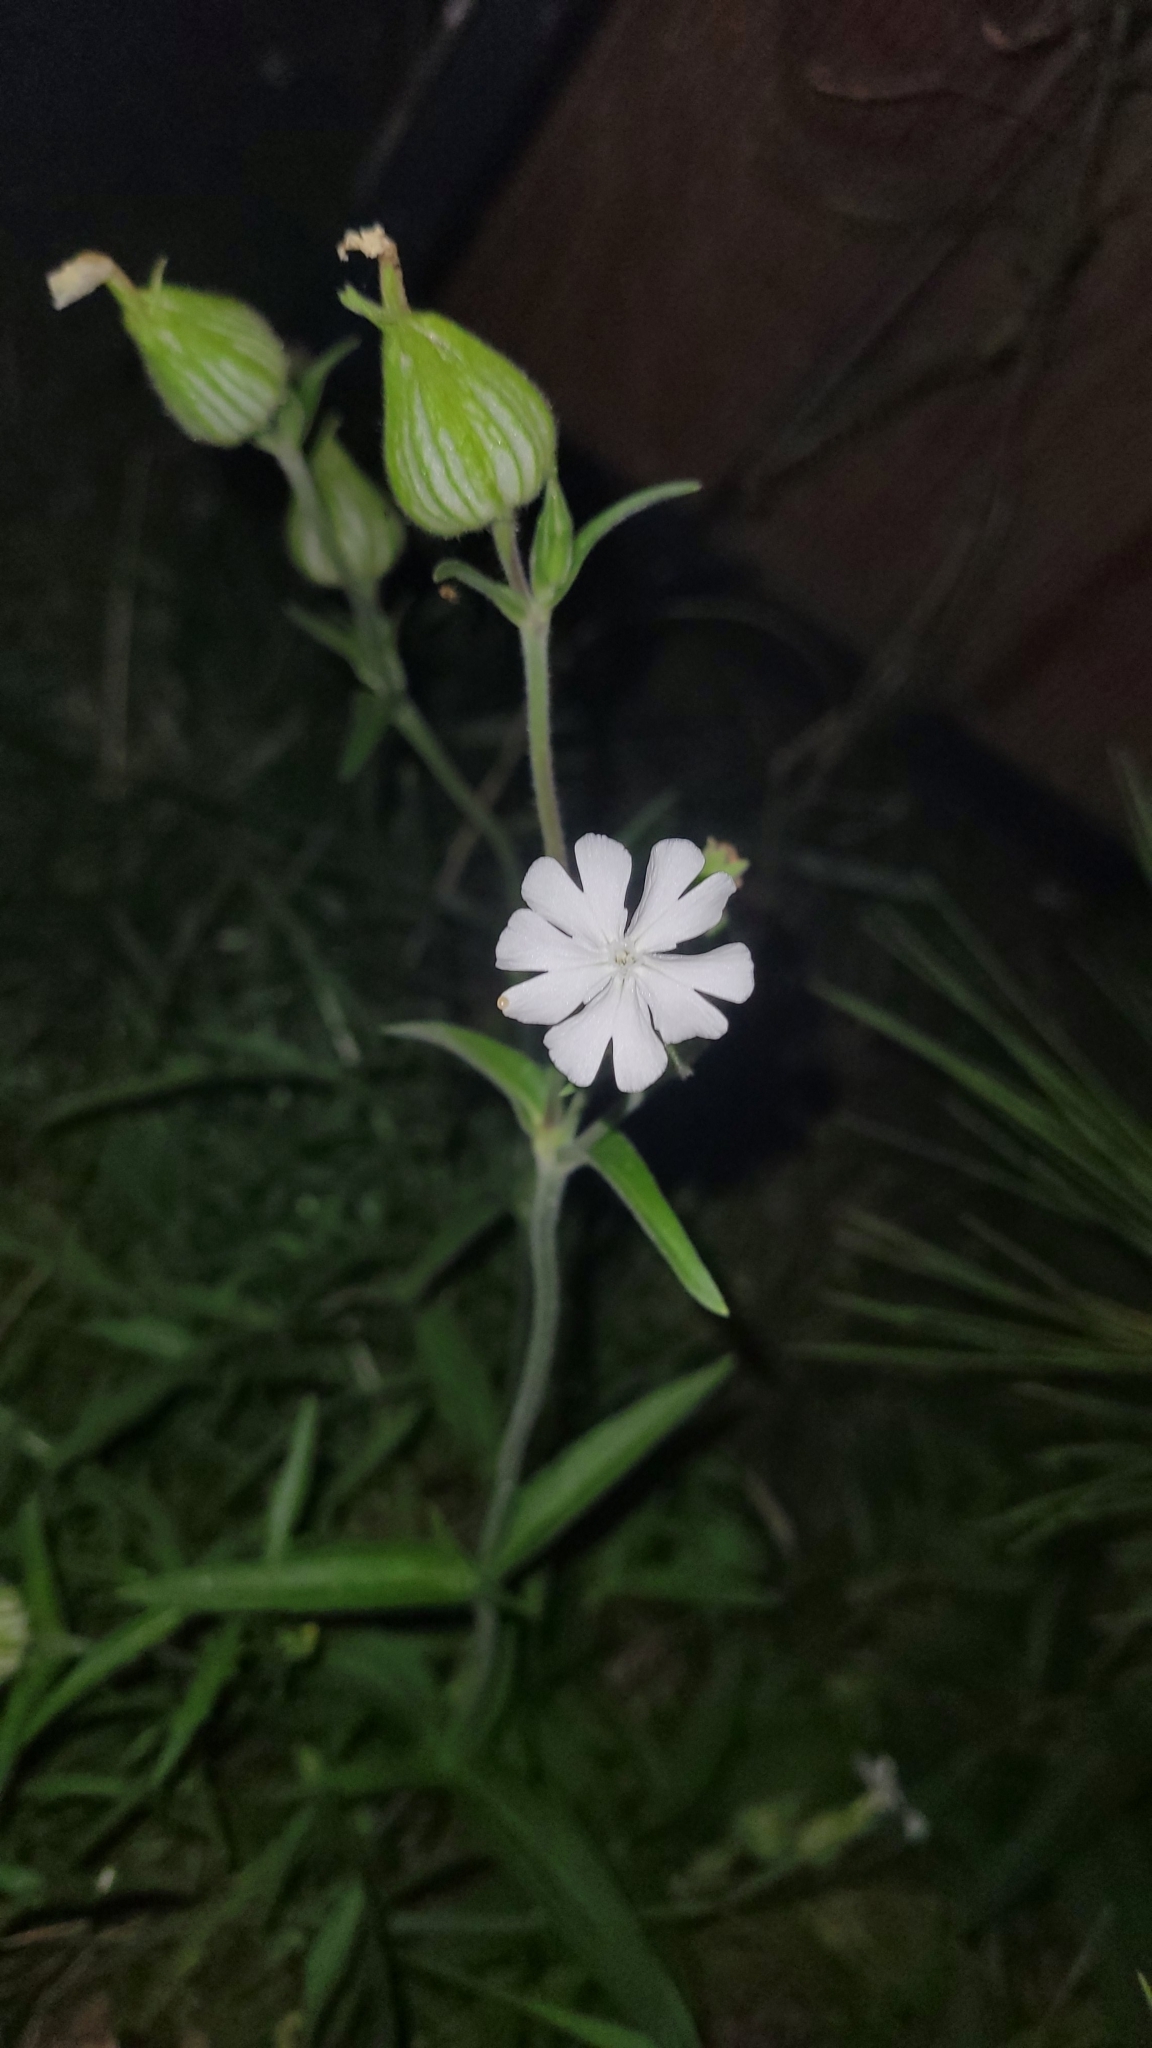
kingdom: Plantae
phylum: Tracheophyta
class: Magnoliopsida
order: Caryophyllales
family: Caryophyllaceae
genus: Silene
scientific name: Silene latifolia
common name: White campion
